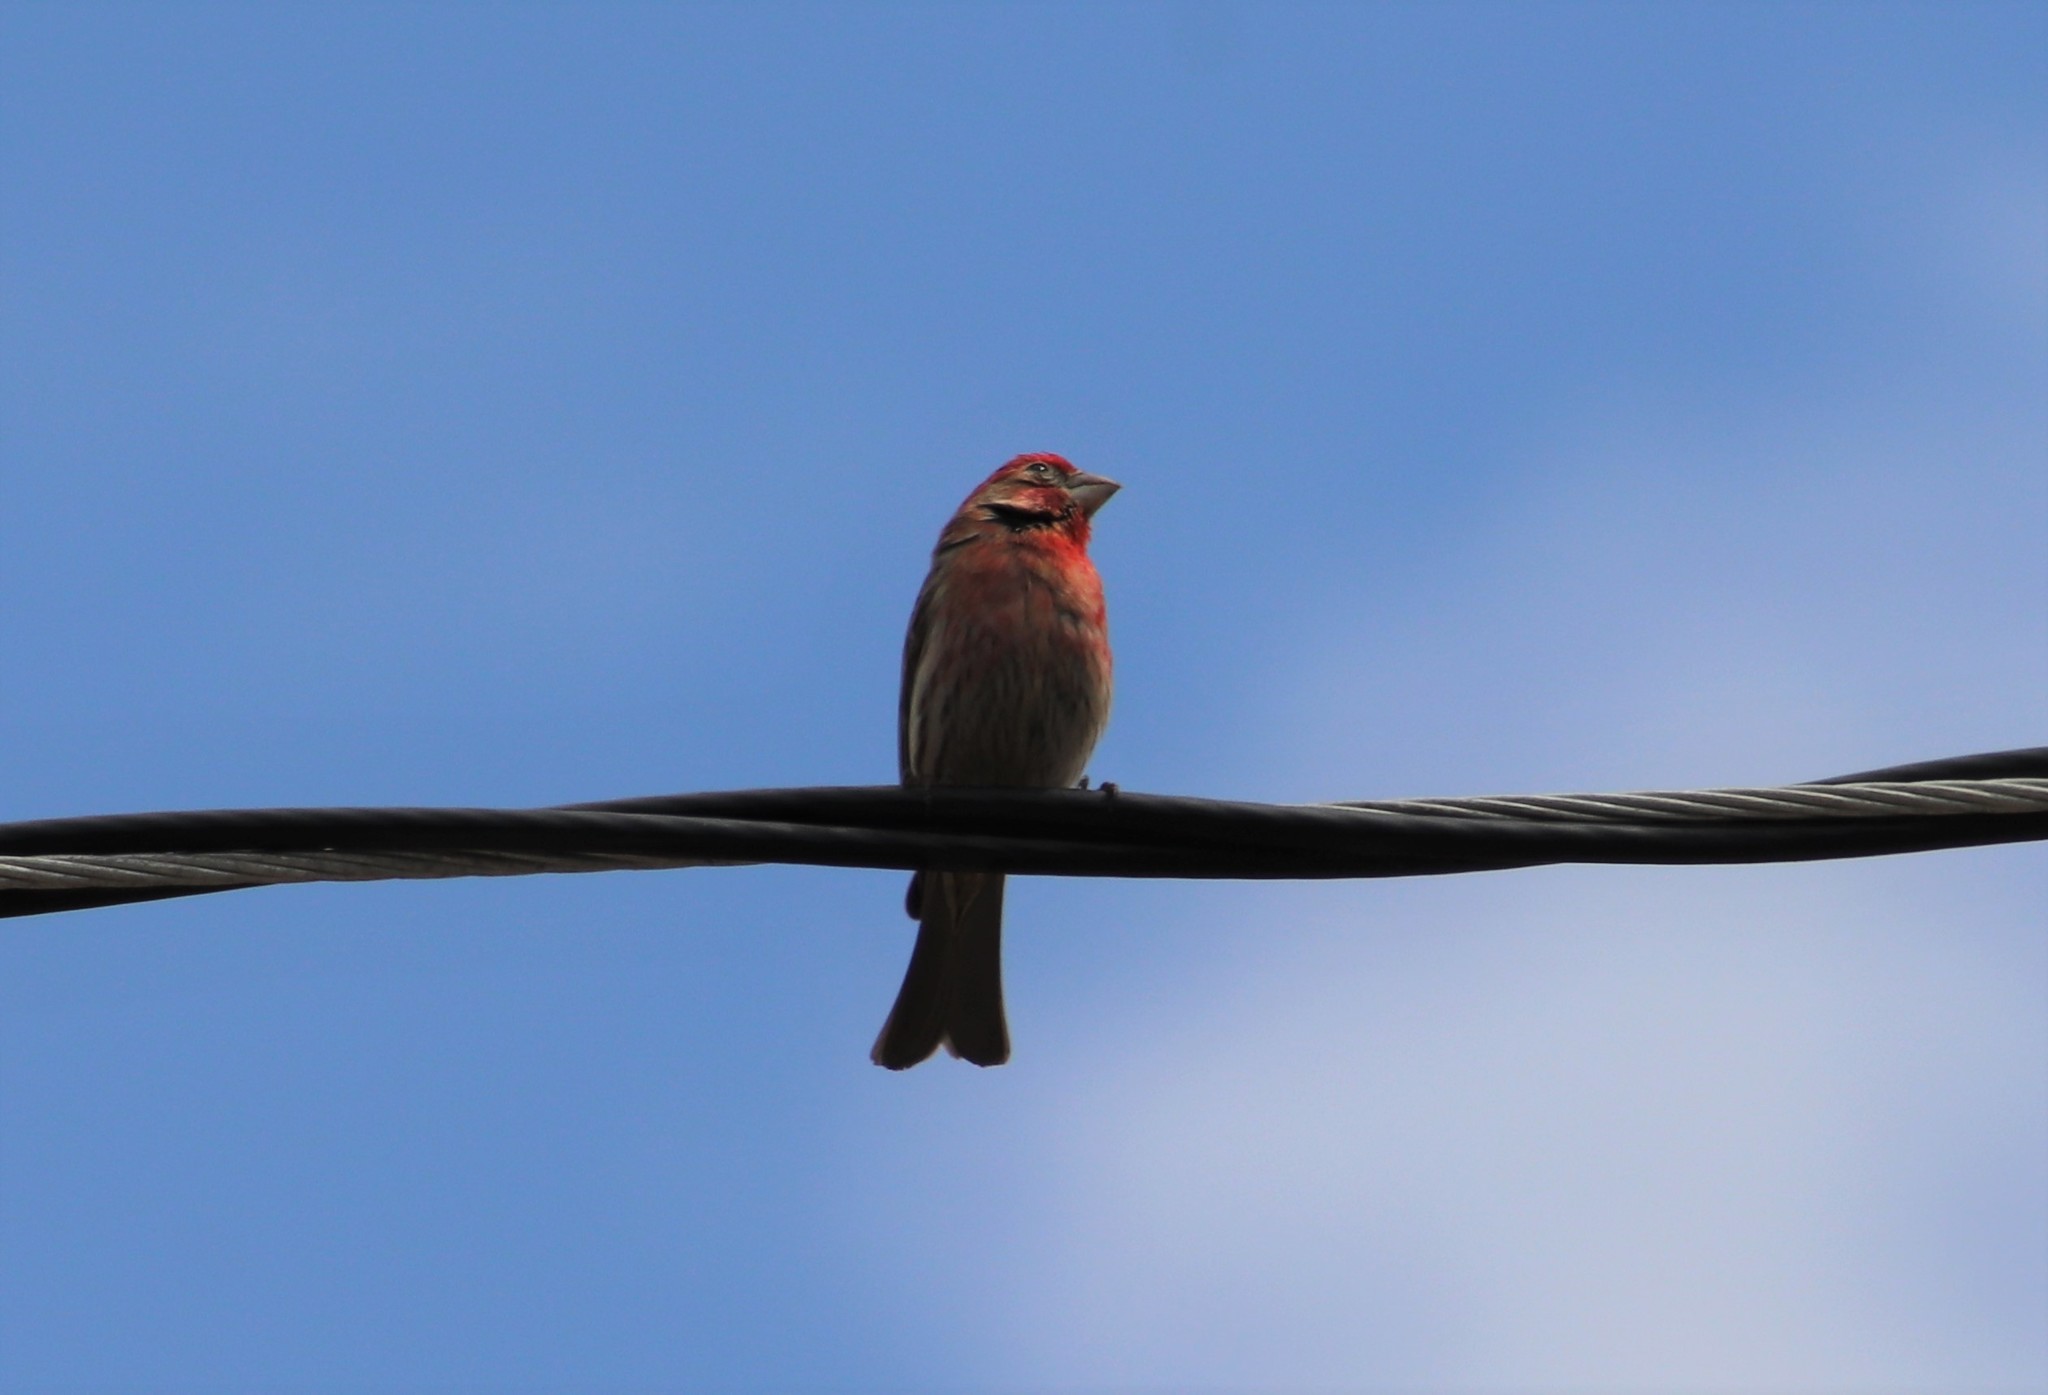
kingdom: Animalia
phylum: Chordata
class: Aves
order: Passeriformes
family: Fringillidae
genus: Haemorhous
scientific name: Haemorhous mexicanus
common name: House finch
